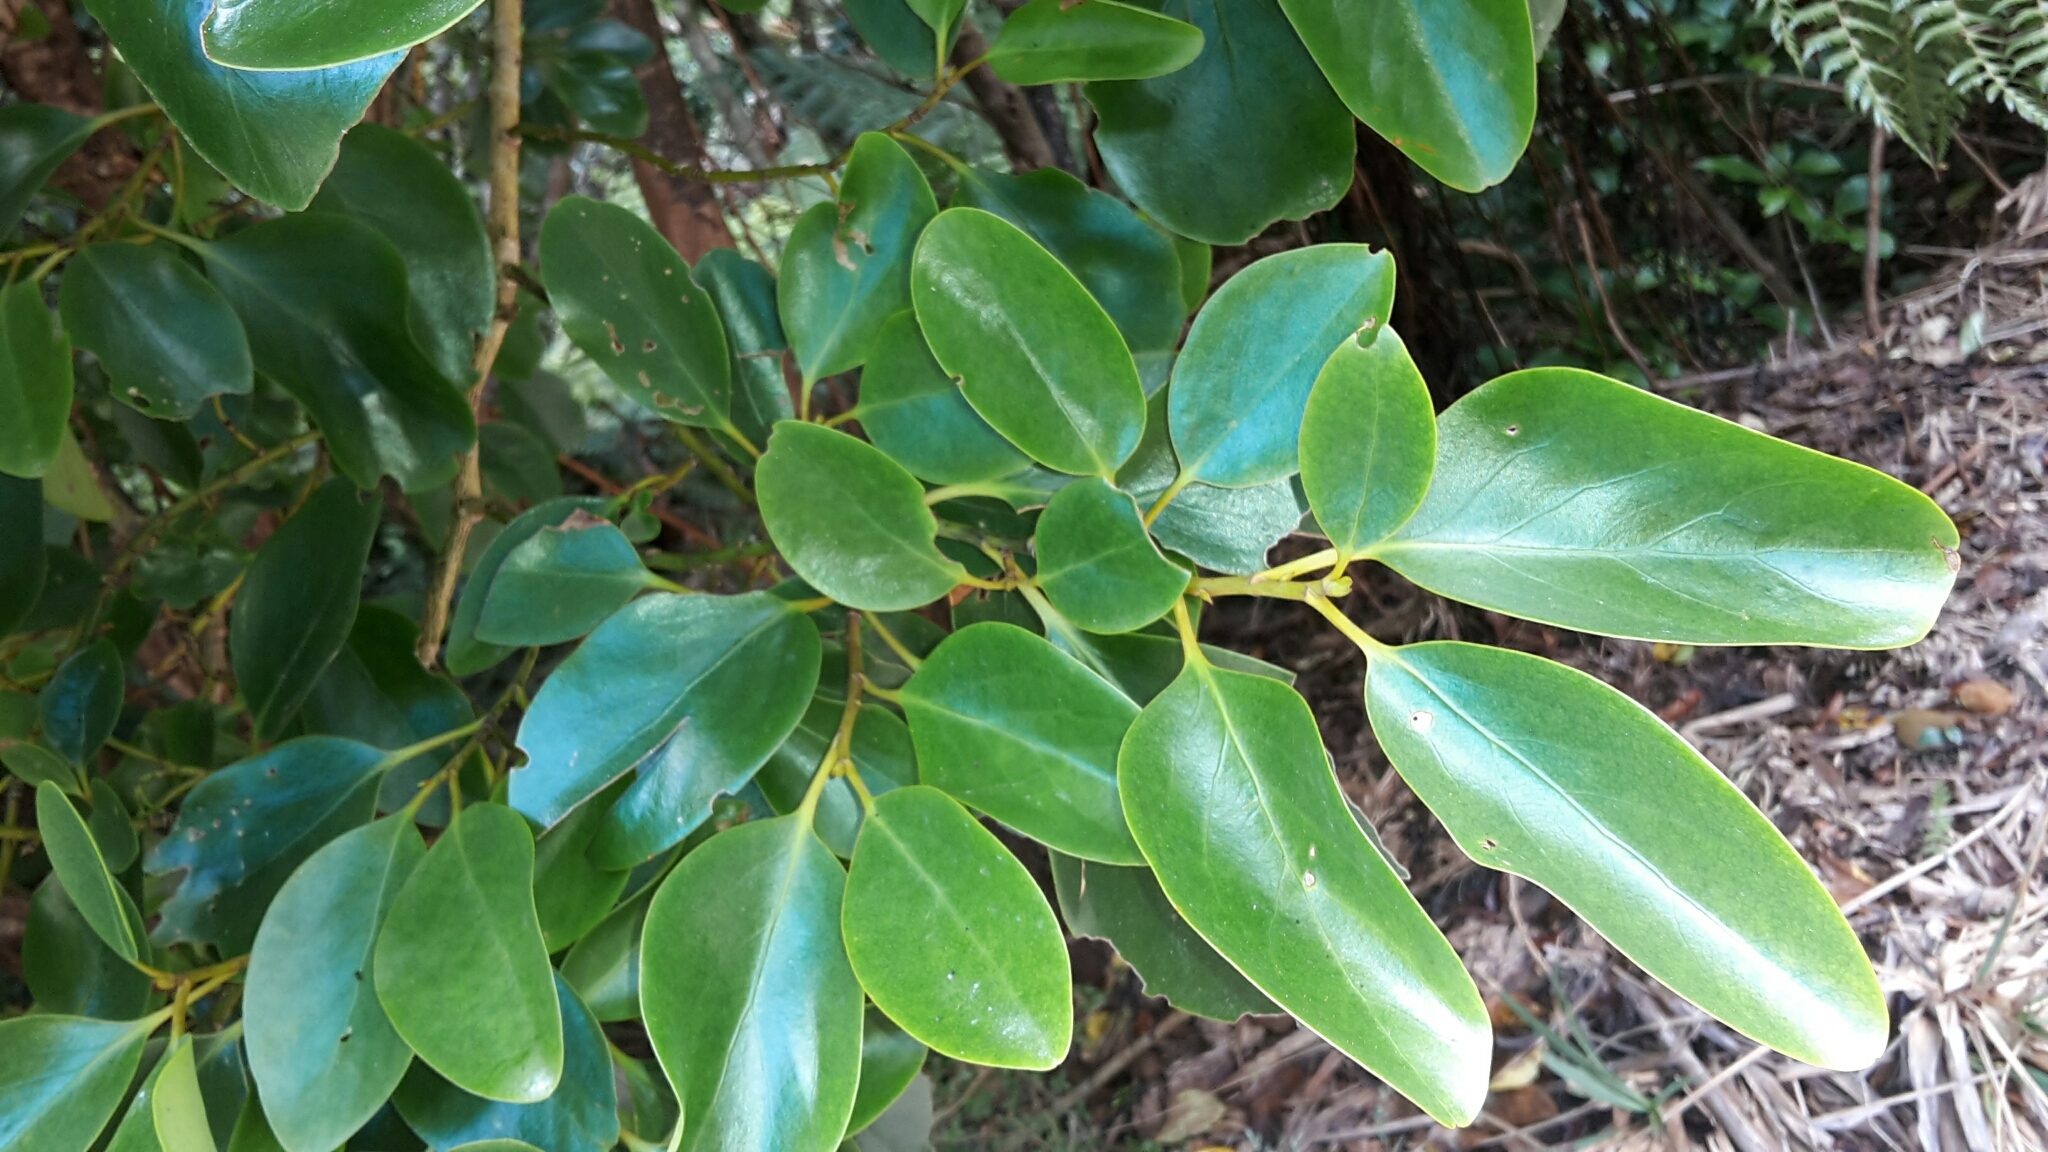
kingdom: Plantae
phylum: Tracheophyta
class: Magnoliopsida
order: Apiales
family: Griseliniaceae
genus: Griselinia
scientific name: Griselinia littoralis
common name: New zealand broadleaf
